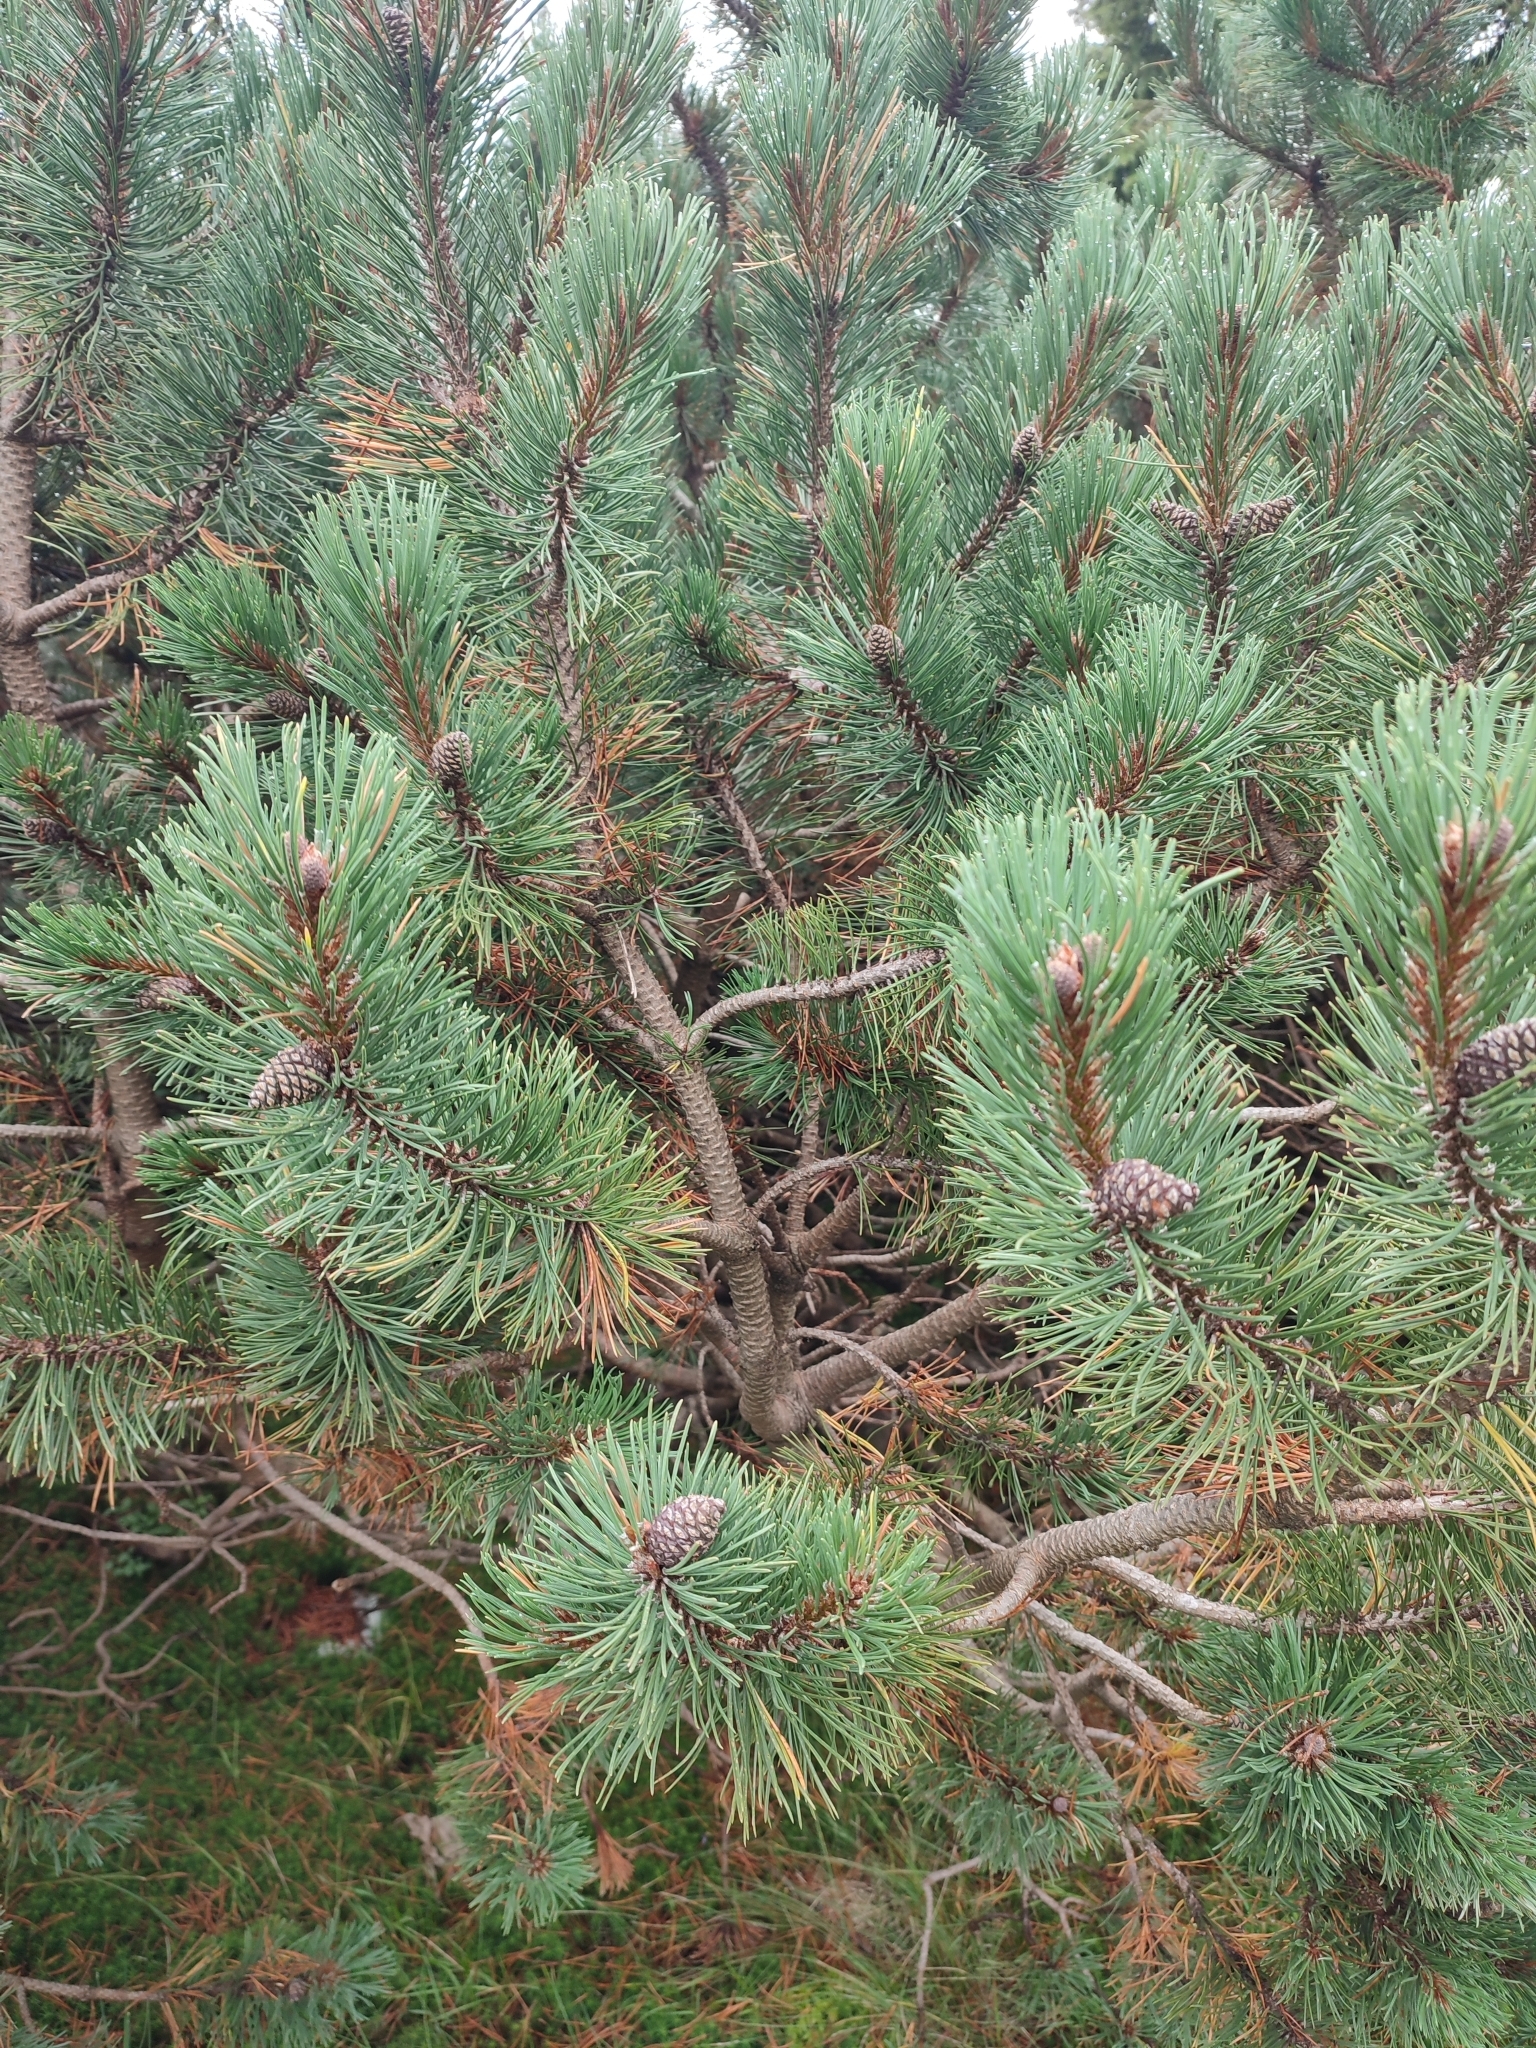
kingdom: Plantae
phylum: Tracheophyta
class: Pinopsida
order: Pinales
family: Pinaceae
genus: Pinus
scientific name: Pinus mugo
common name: Mugo pine
